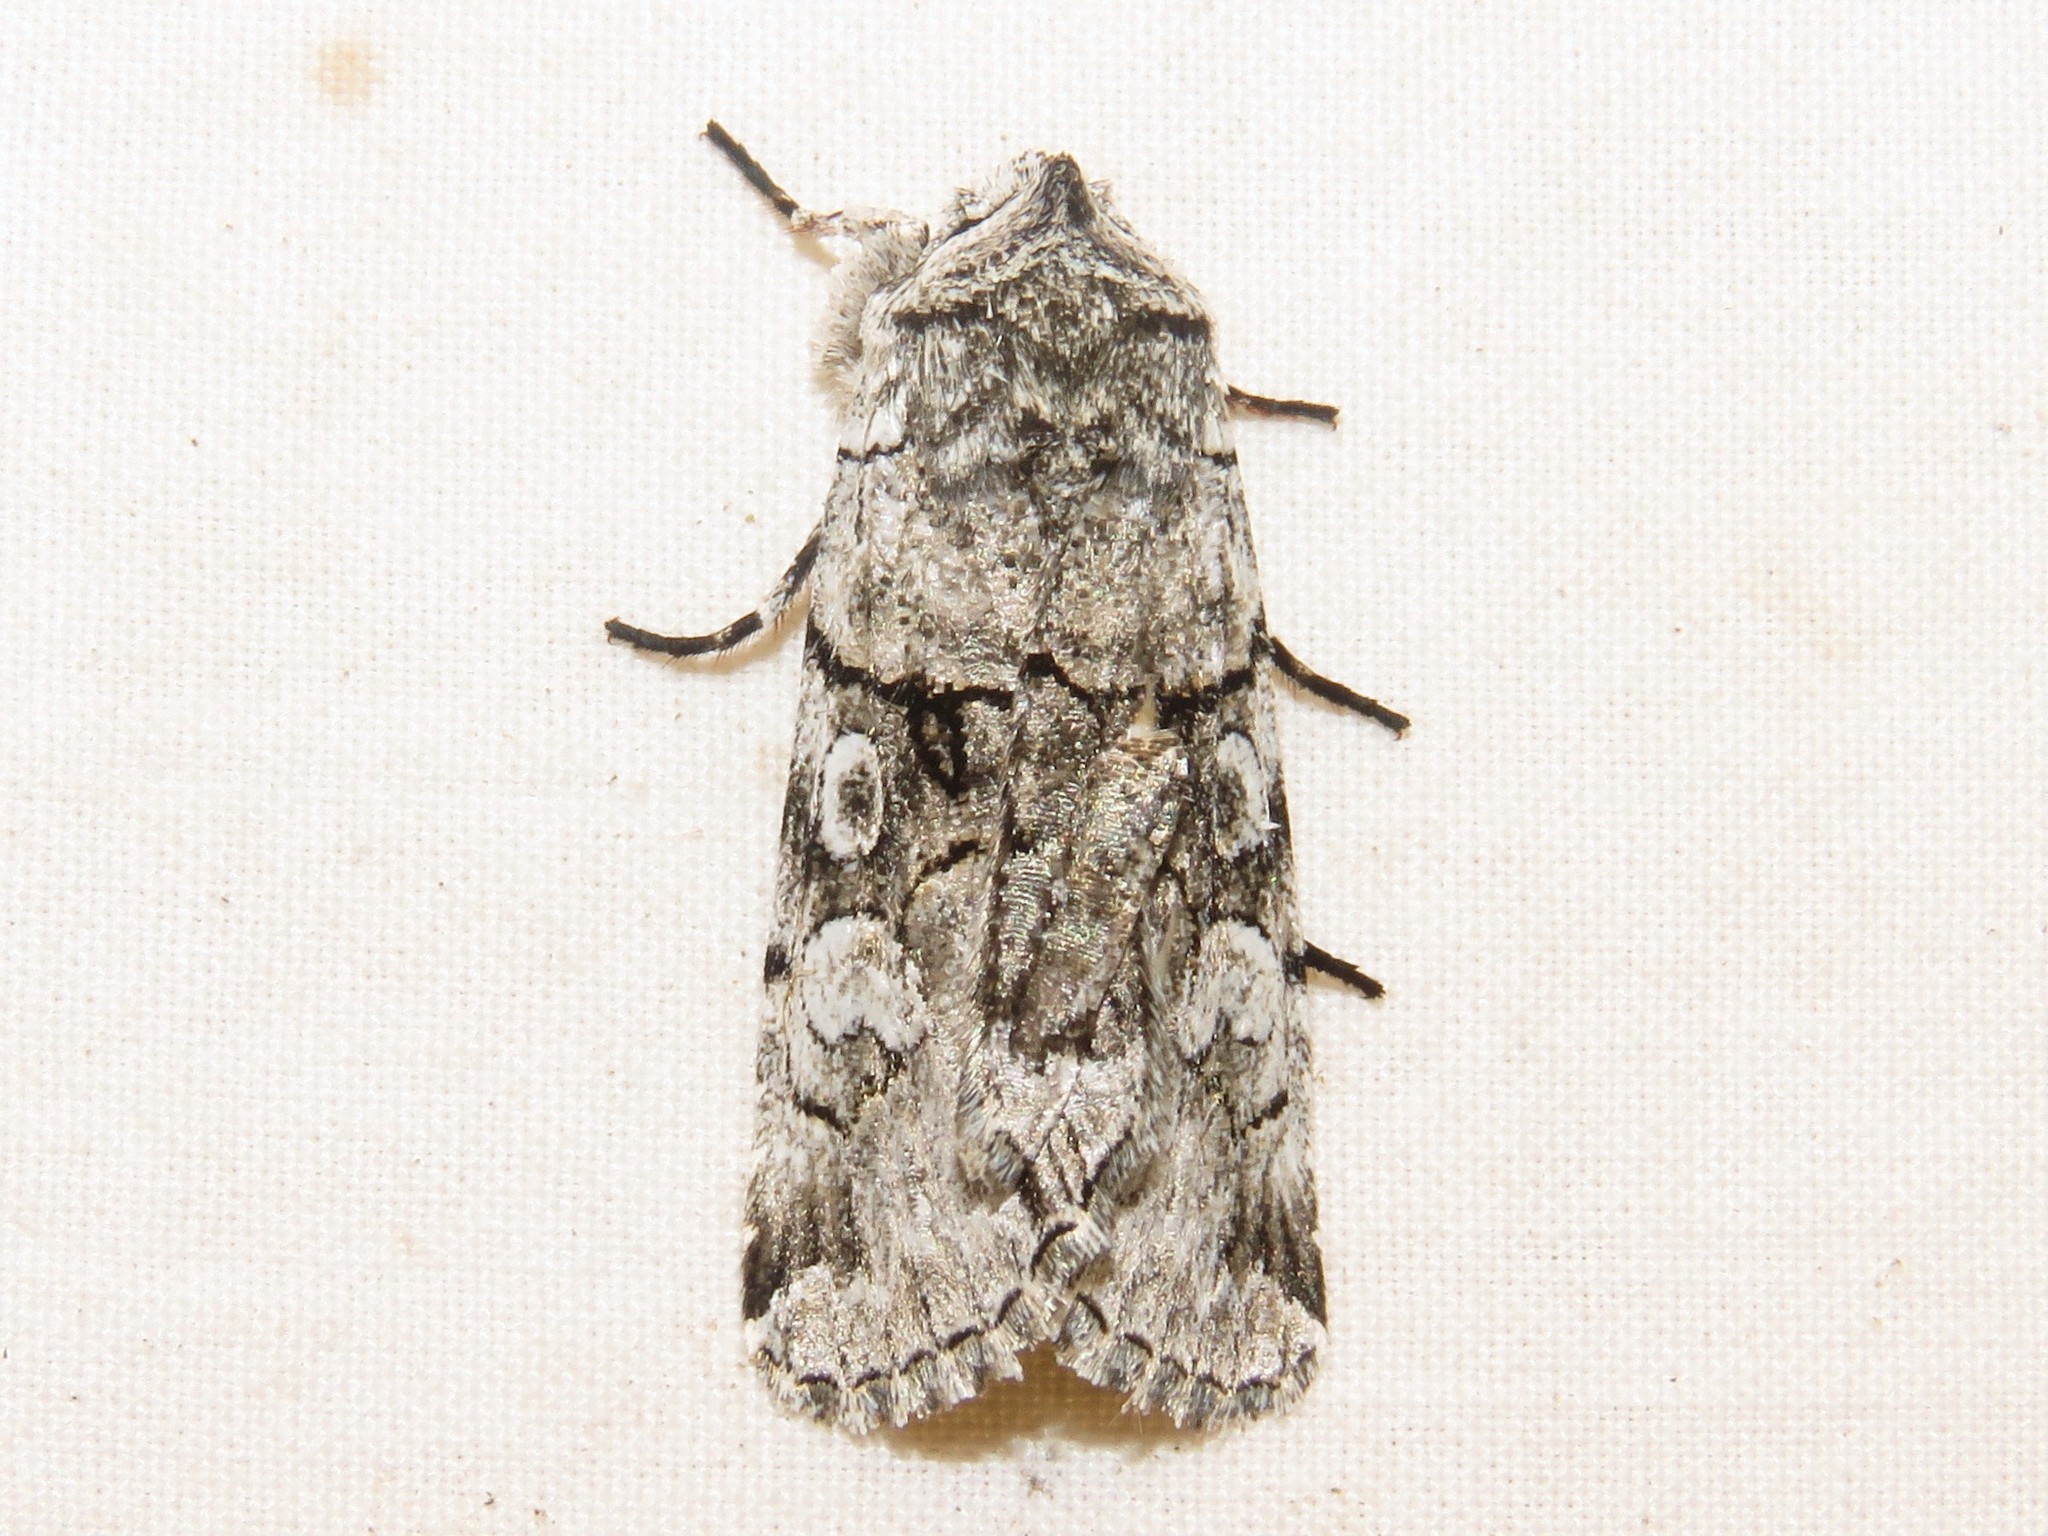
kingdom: Animalia
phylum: Arthropoda
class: Insecta
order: Lepidoptera
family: Noctuidae
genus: Sympistis
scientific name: Sympistis chionanthi
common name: Fringe-tree sallow
